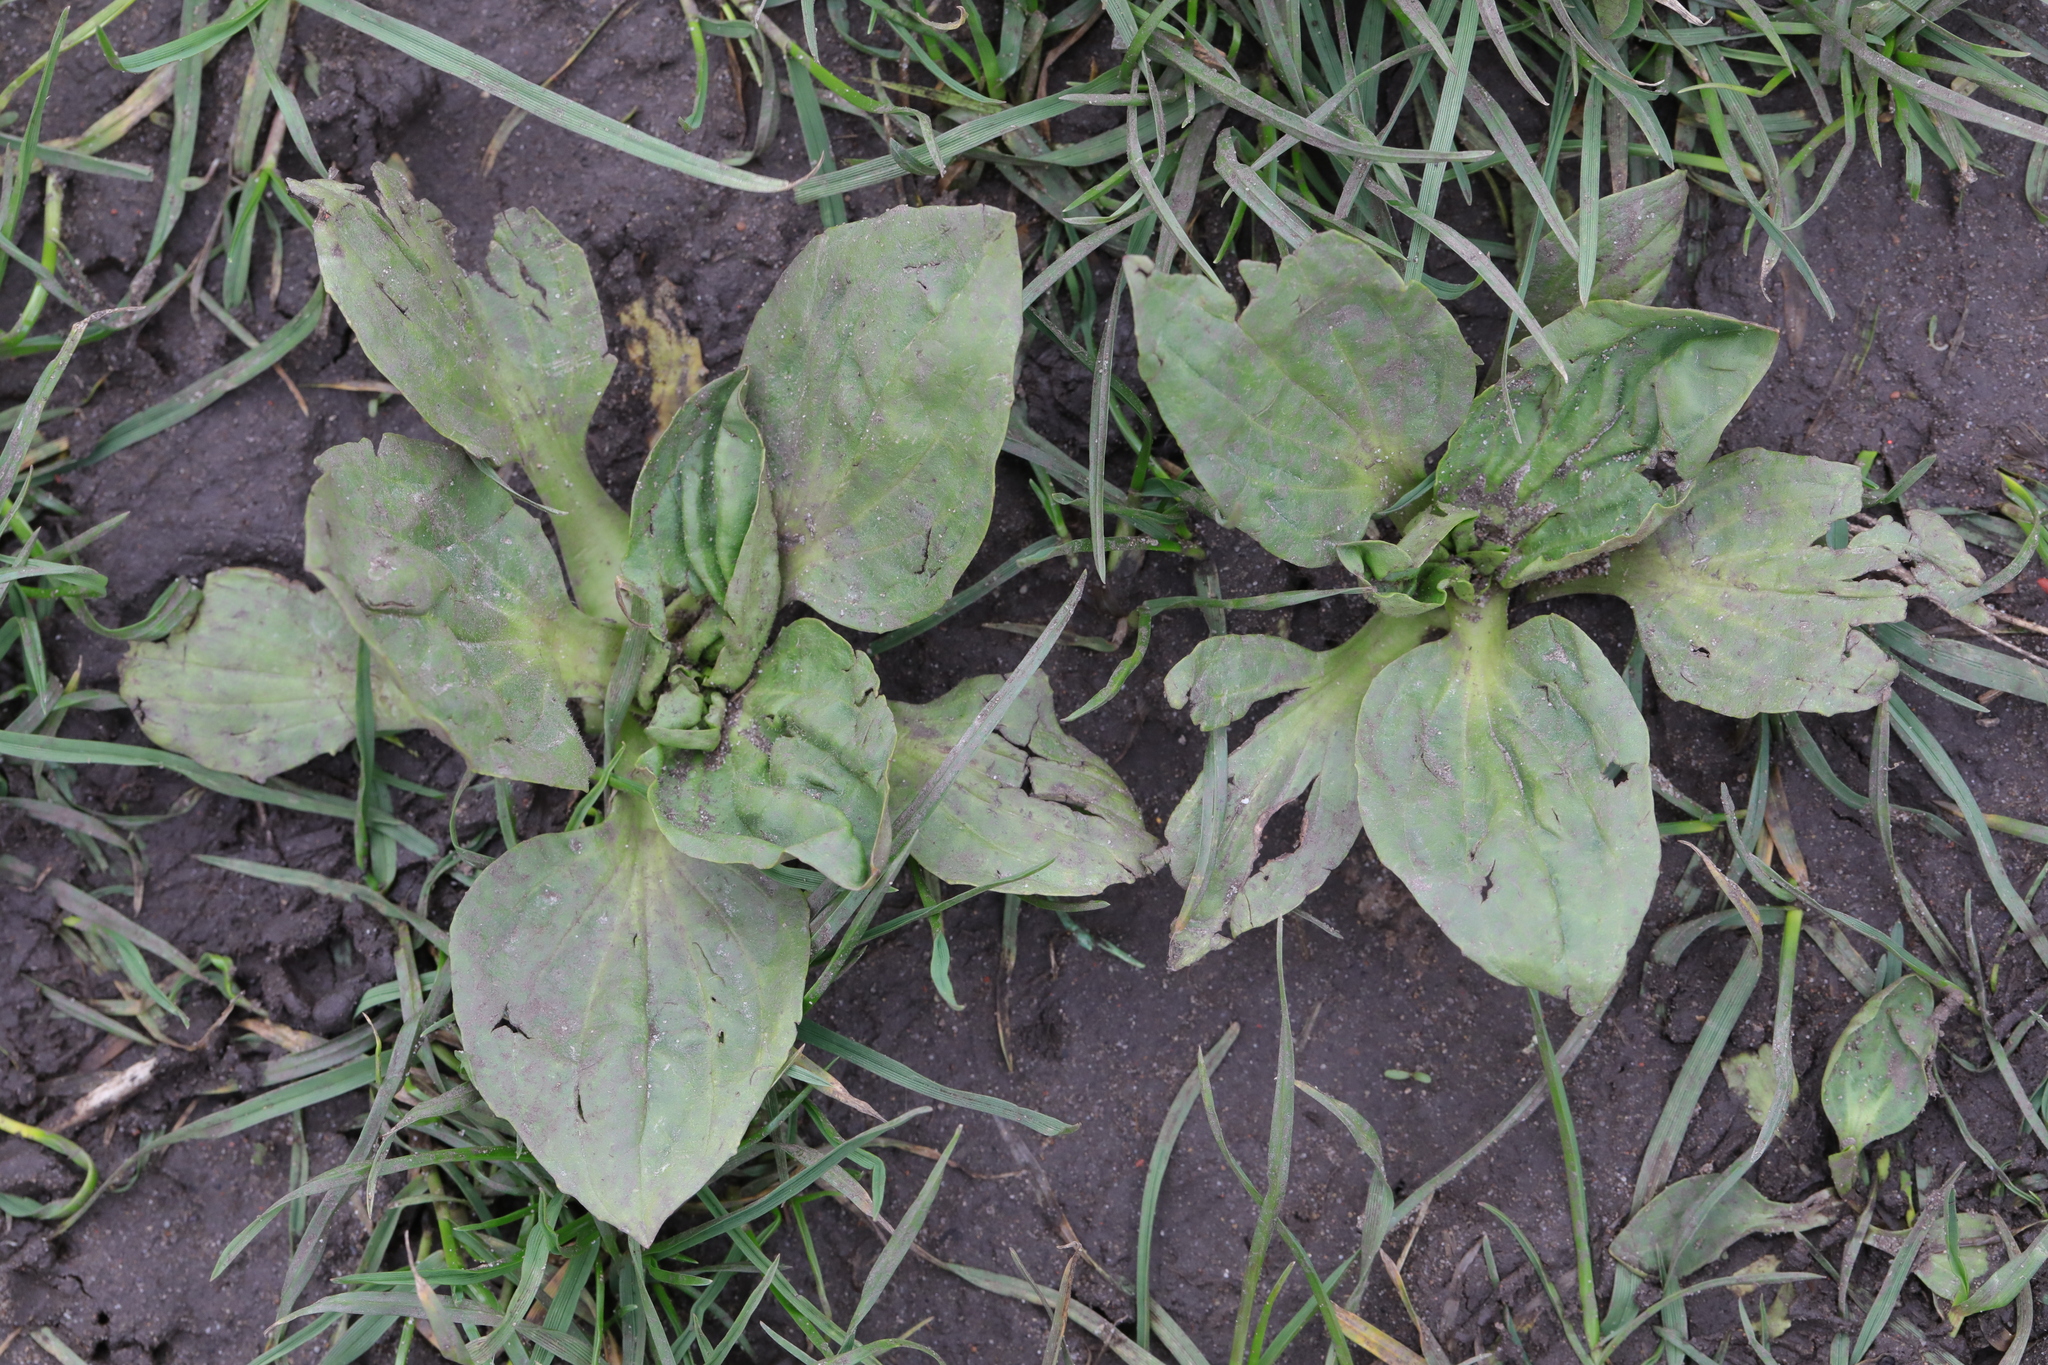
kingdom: Plantae
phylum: Tracheophyta
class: Magnoliopsida
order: Lamiales
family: Plantaginaceae
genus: Plantago
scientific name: Plantago major
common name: Common plantain
